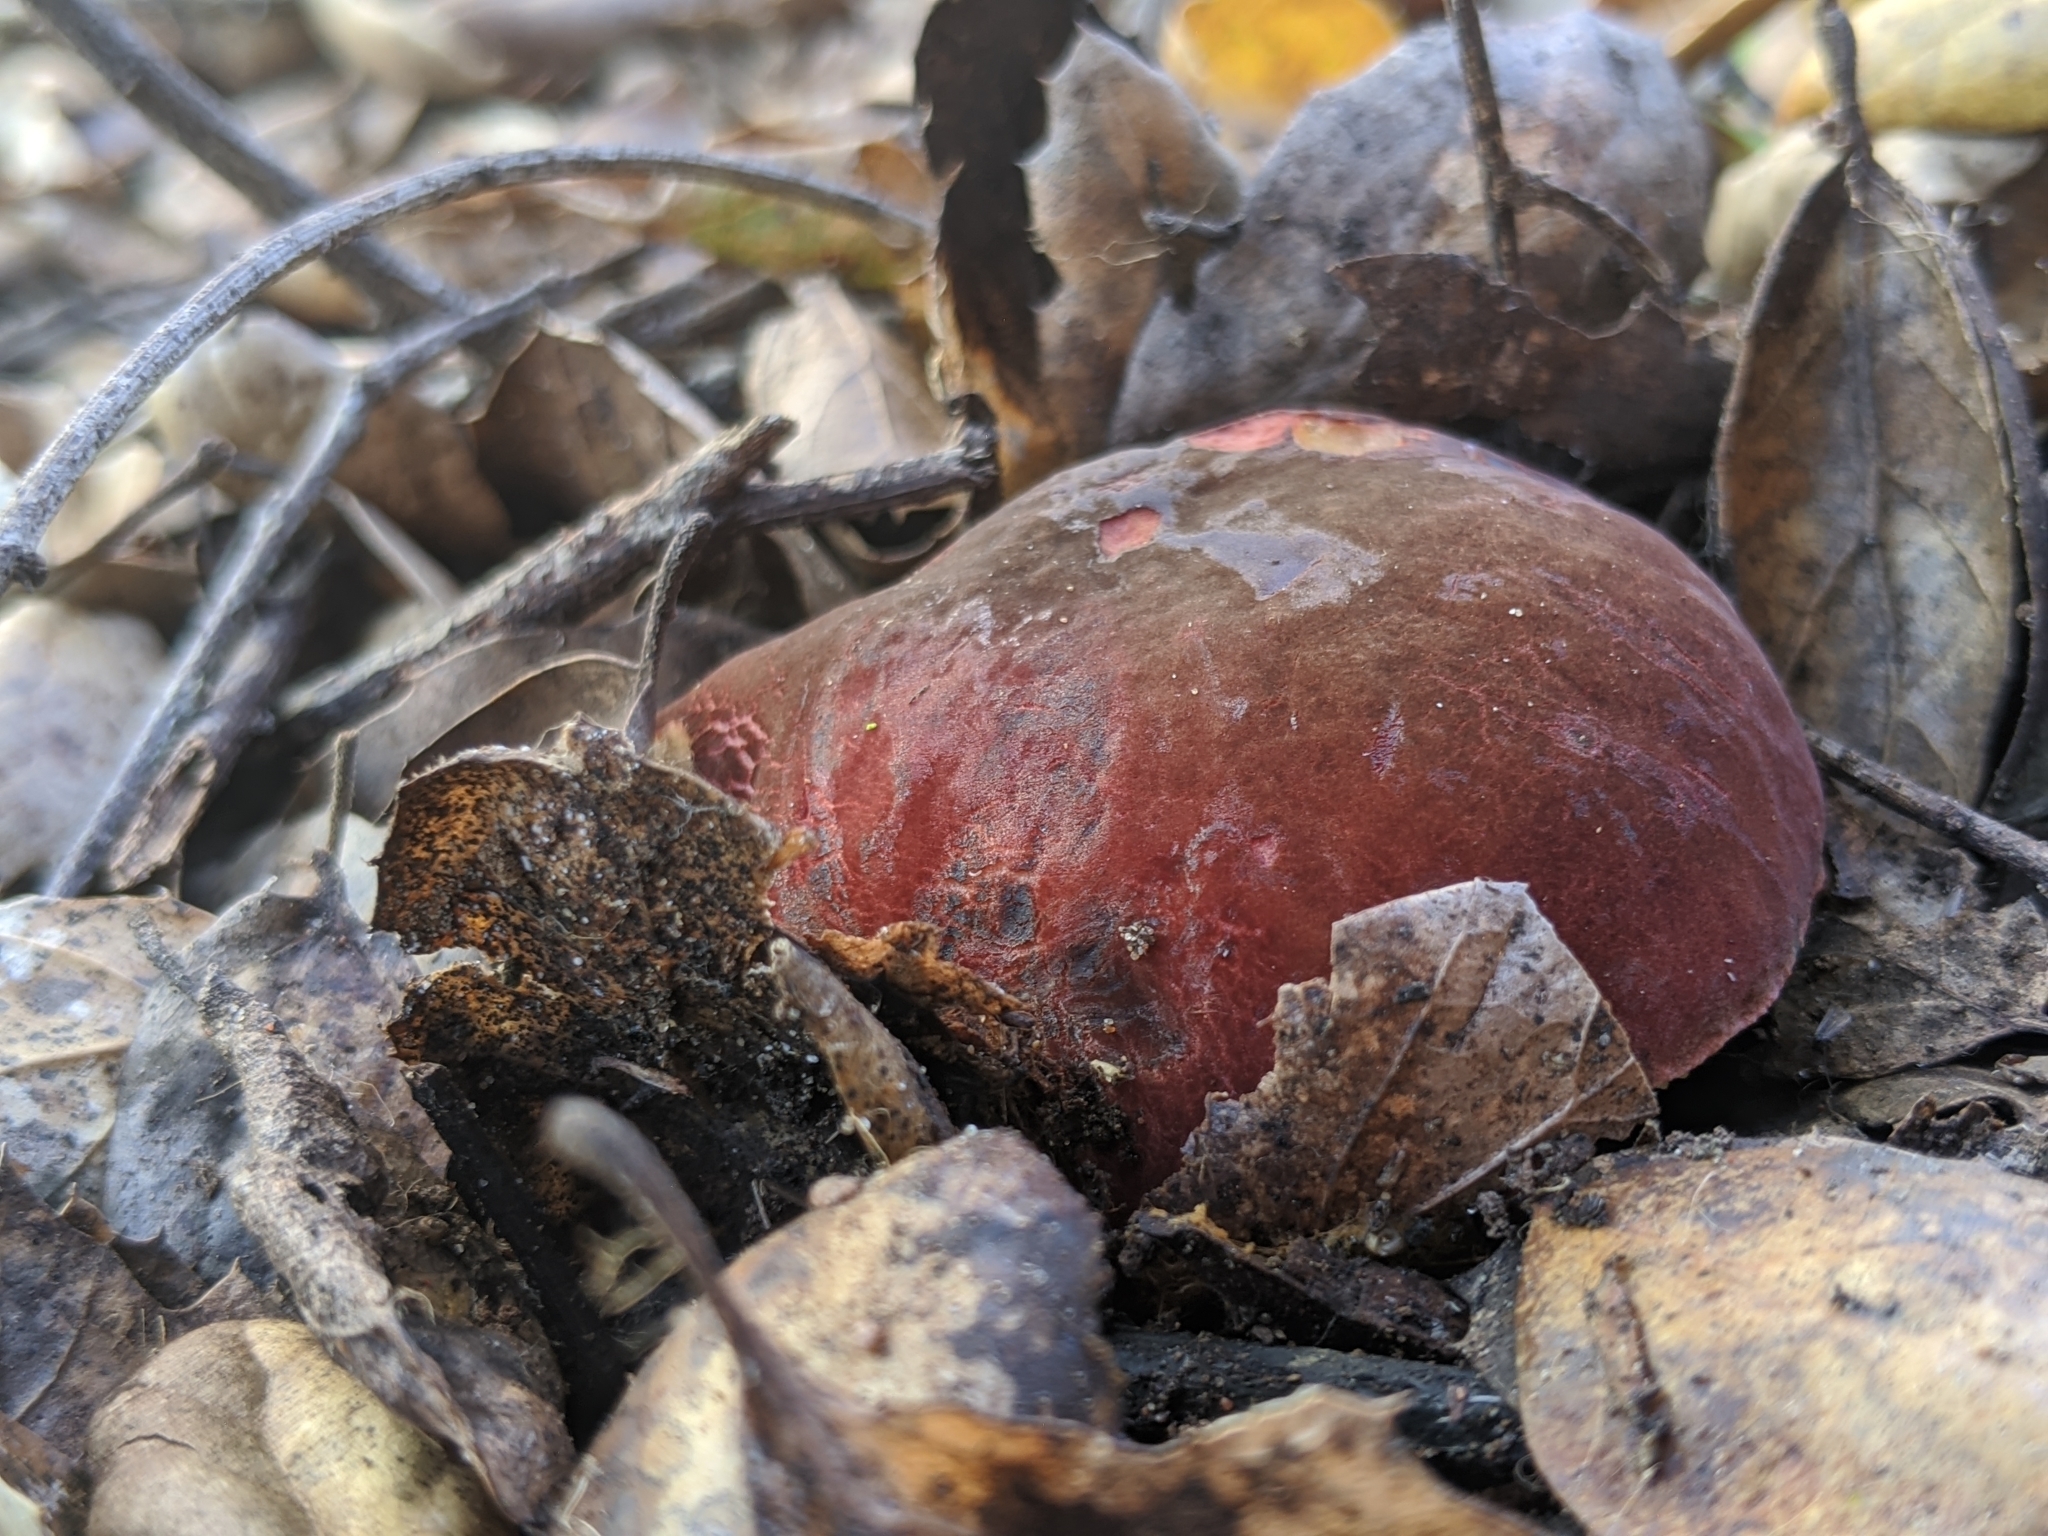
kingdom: Fungi
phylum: Basidiomycota
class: Agaricomycetes
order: Boletales
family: Boletaceae
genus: Xerocomellus
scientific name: Xerocomellus dryophilus
